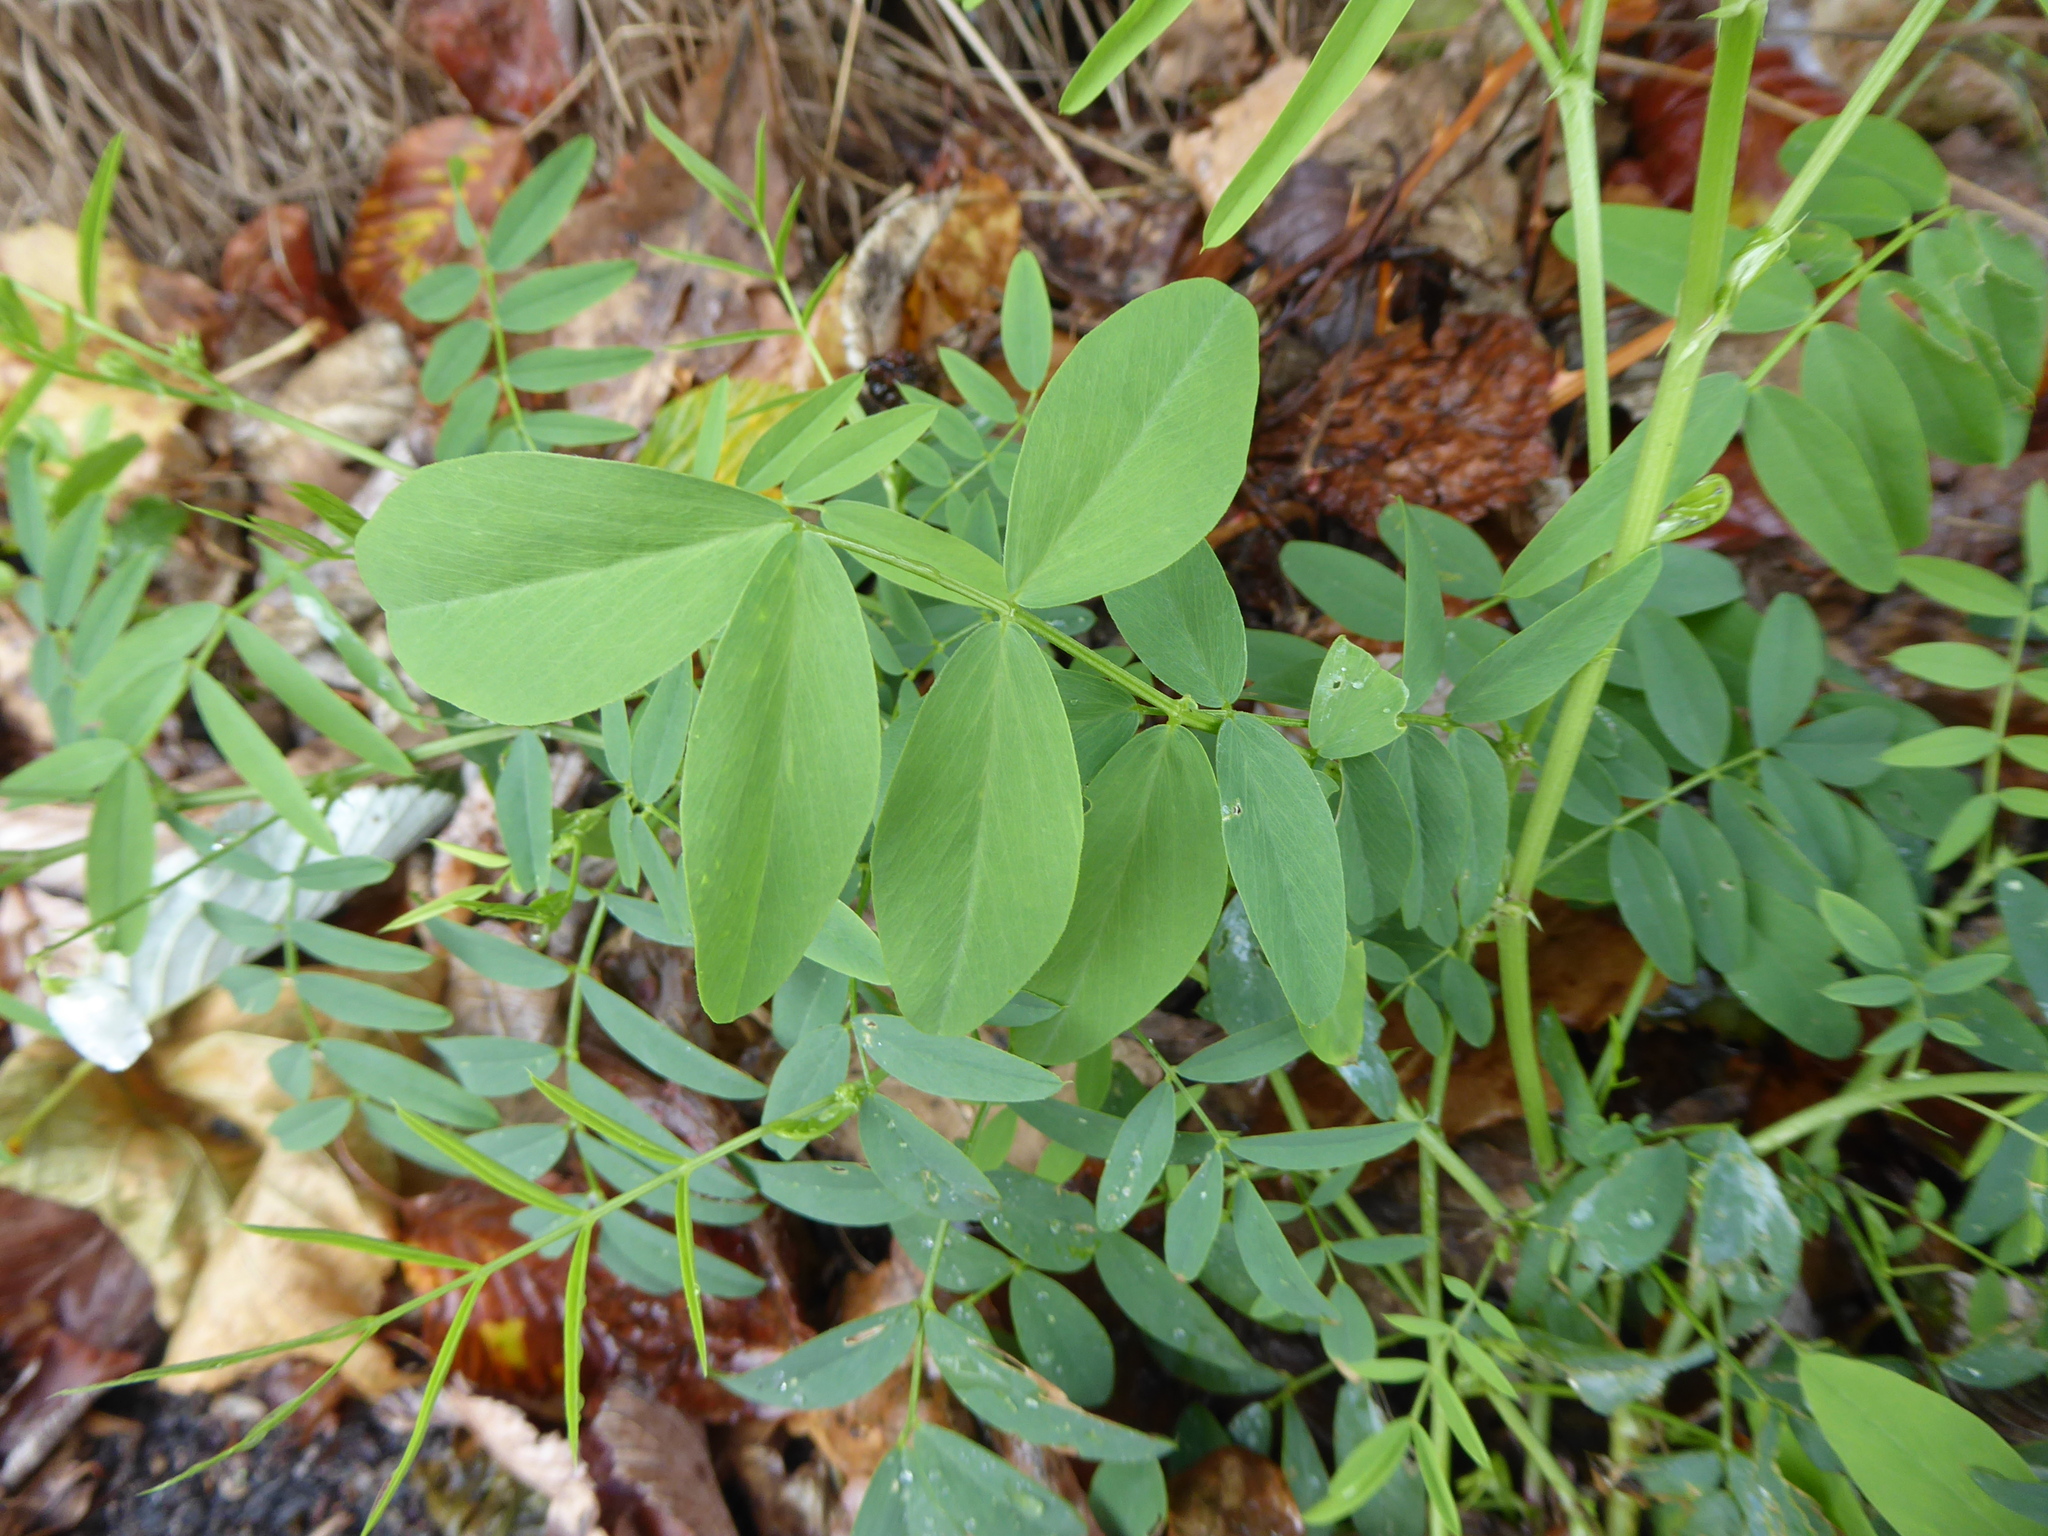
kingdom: Plantae
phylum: Tracheophyta
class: Magnoliopsida
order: Fabales
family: Fabaceae
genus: Galega
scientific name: Galega officinalis
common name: Goat's-rue
